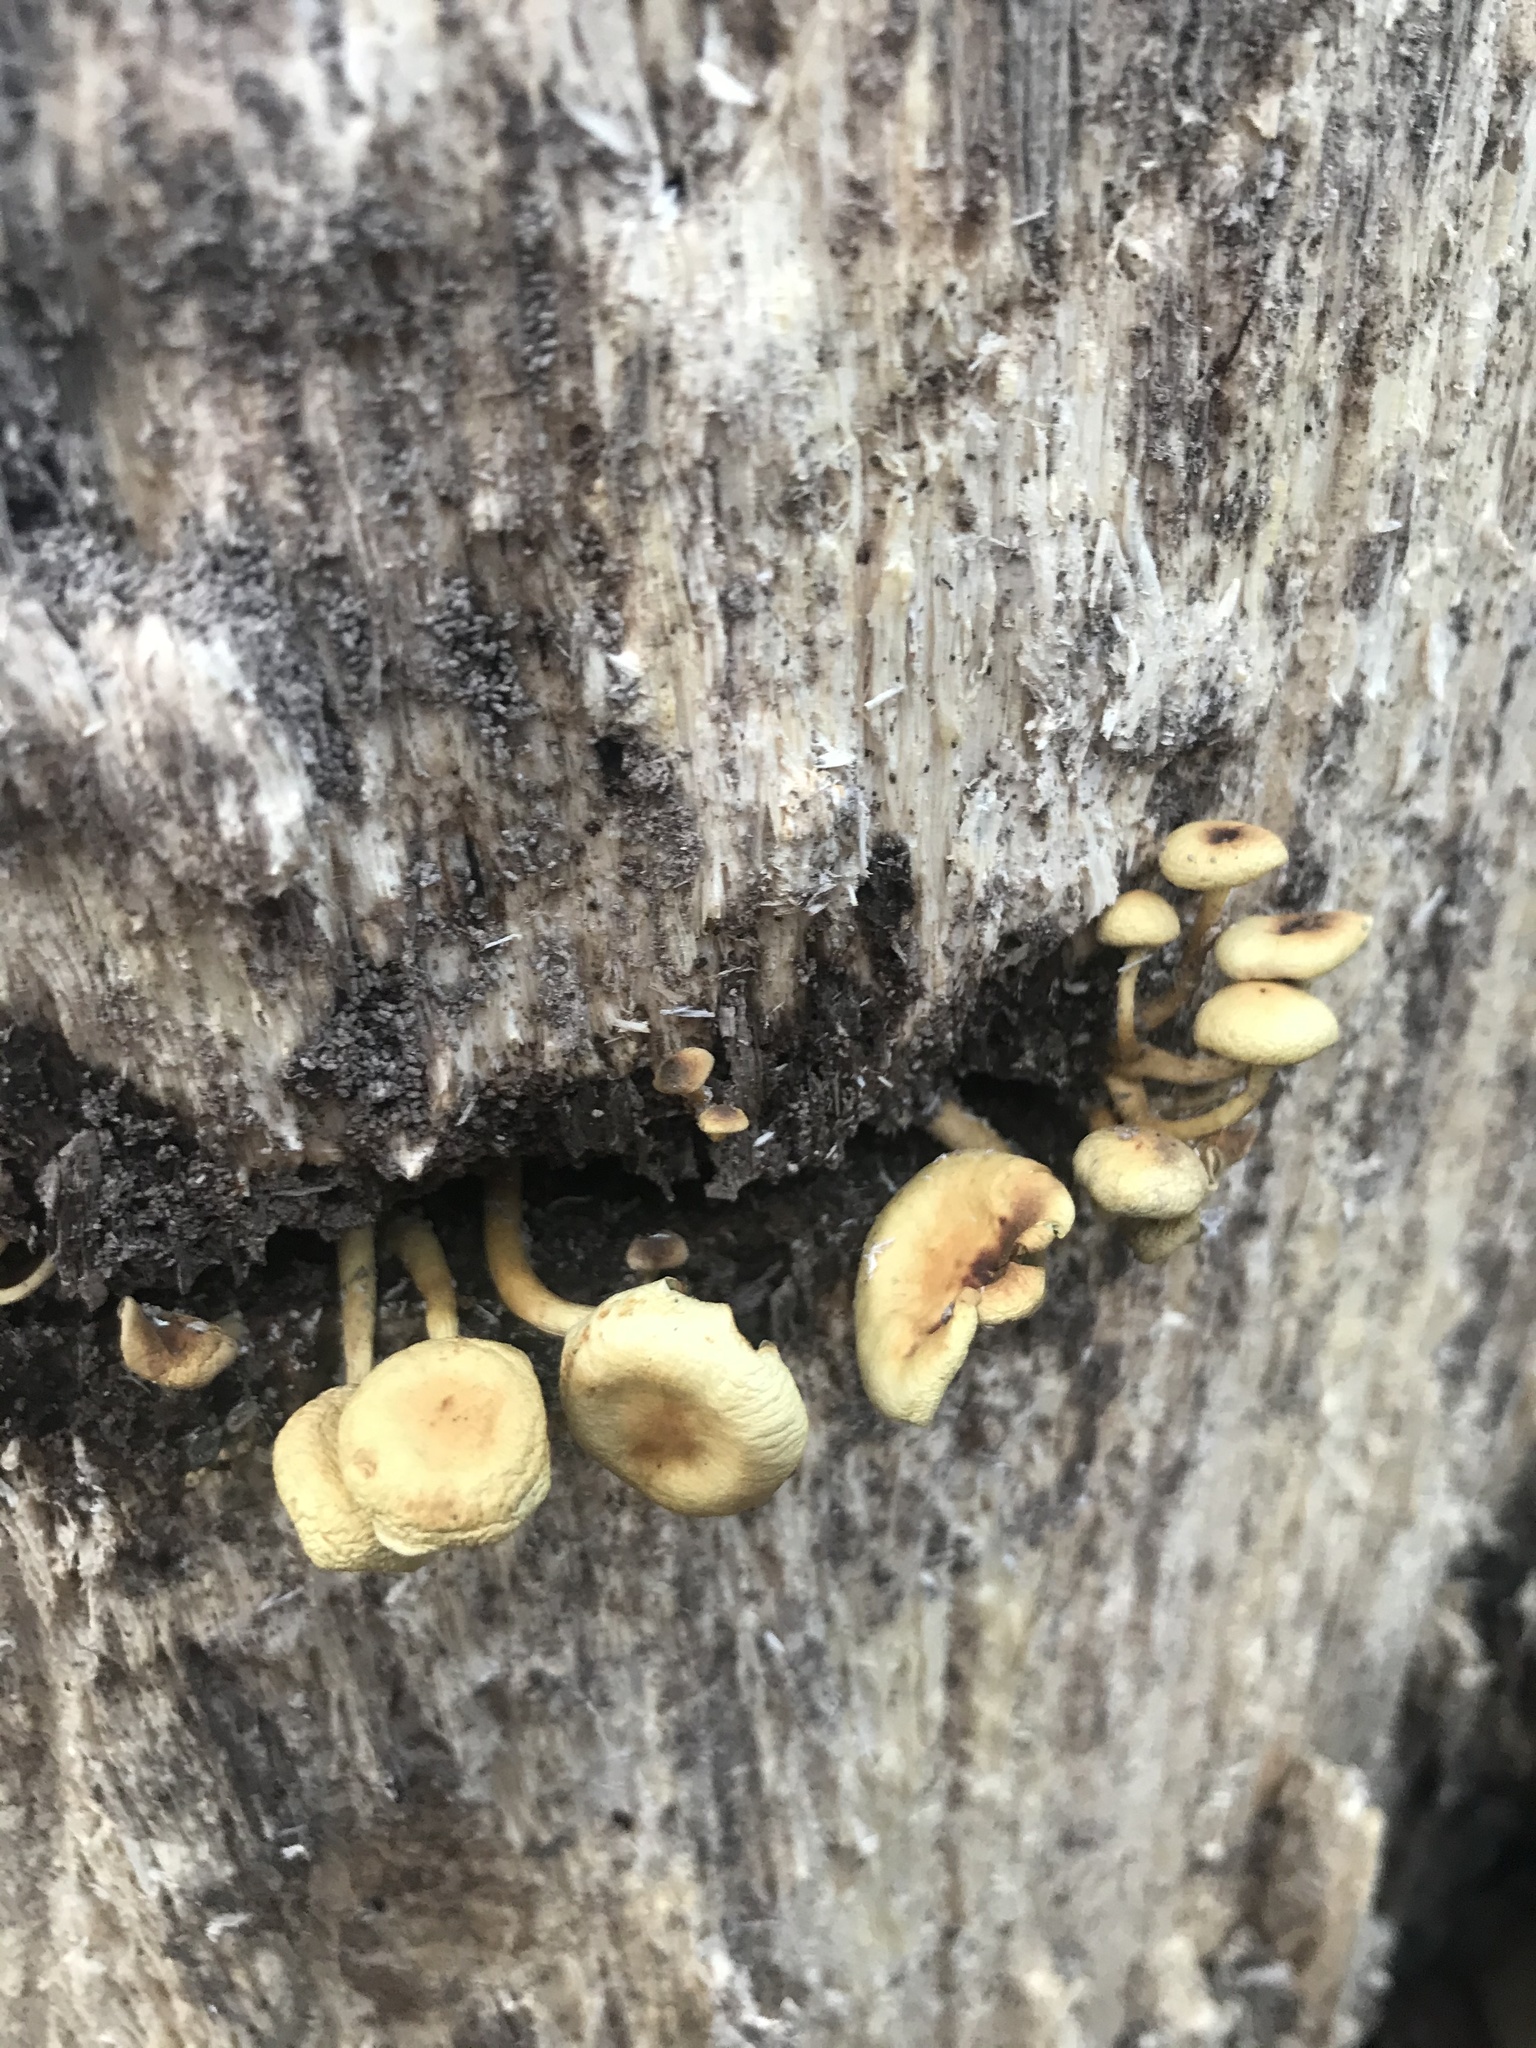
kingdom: Fungi
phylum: Basidiomycota
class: Agaricomycetes
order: Agaricales
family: Strophariaceae
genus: Hypholoma
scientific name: Hypholoma fasciculare
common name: Sulphur tuft
